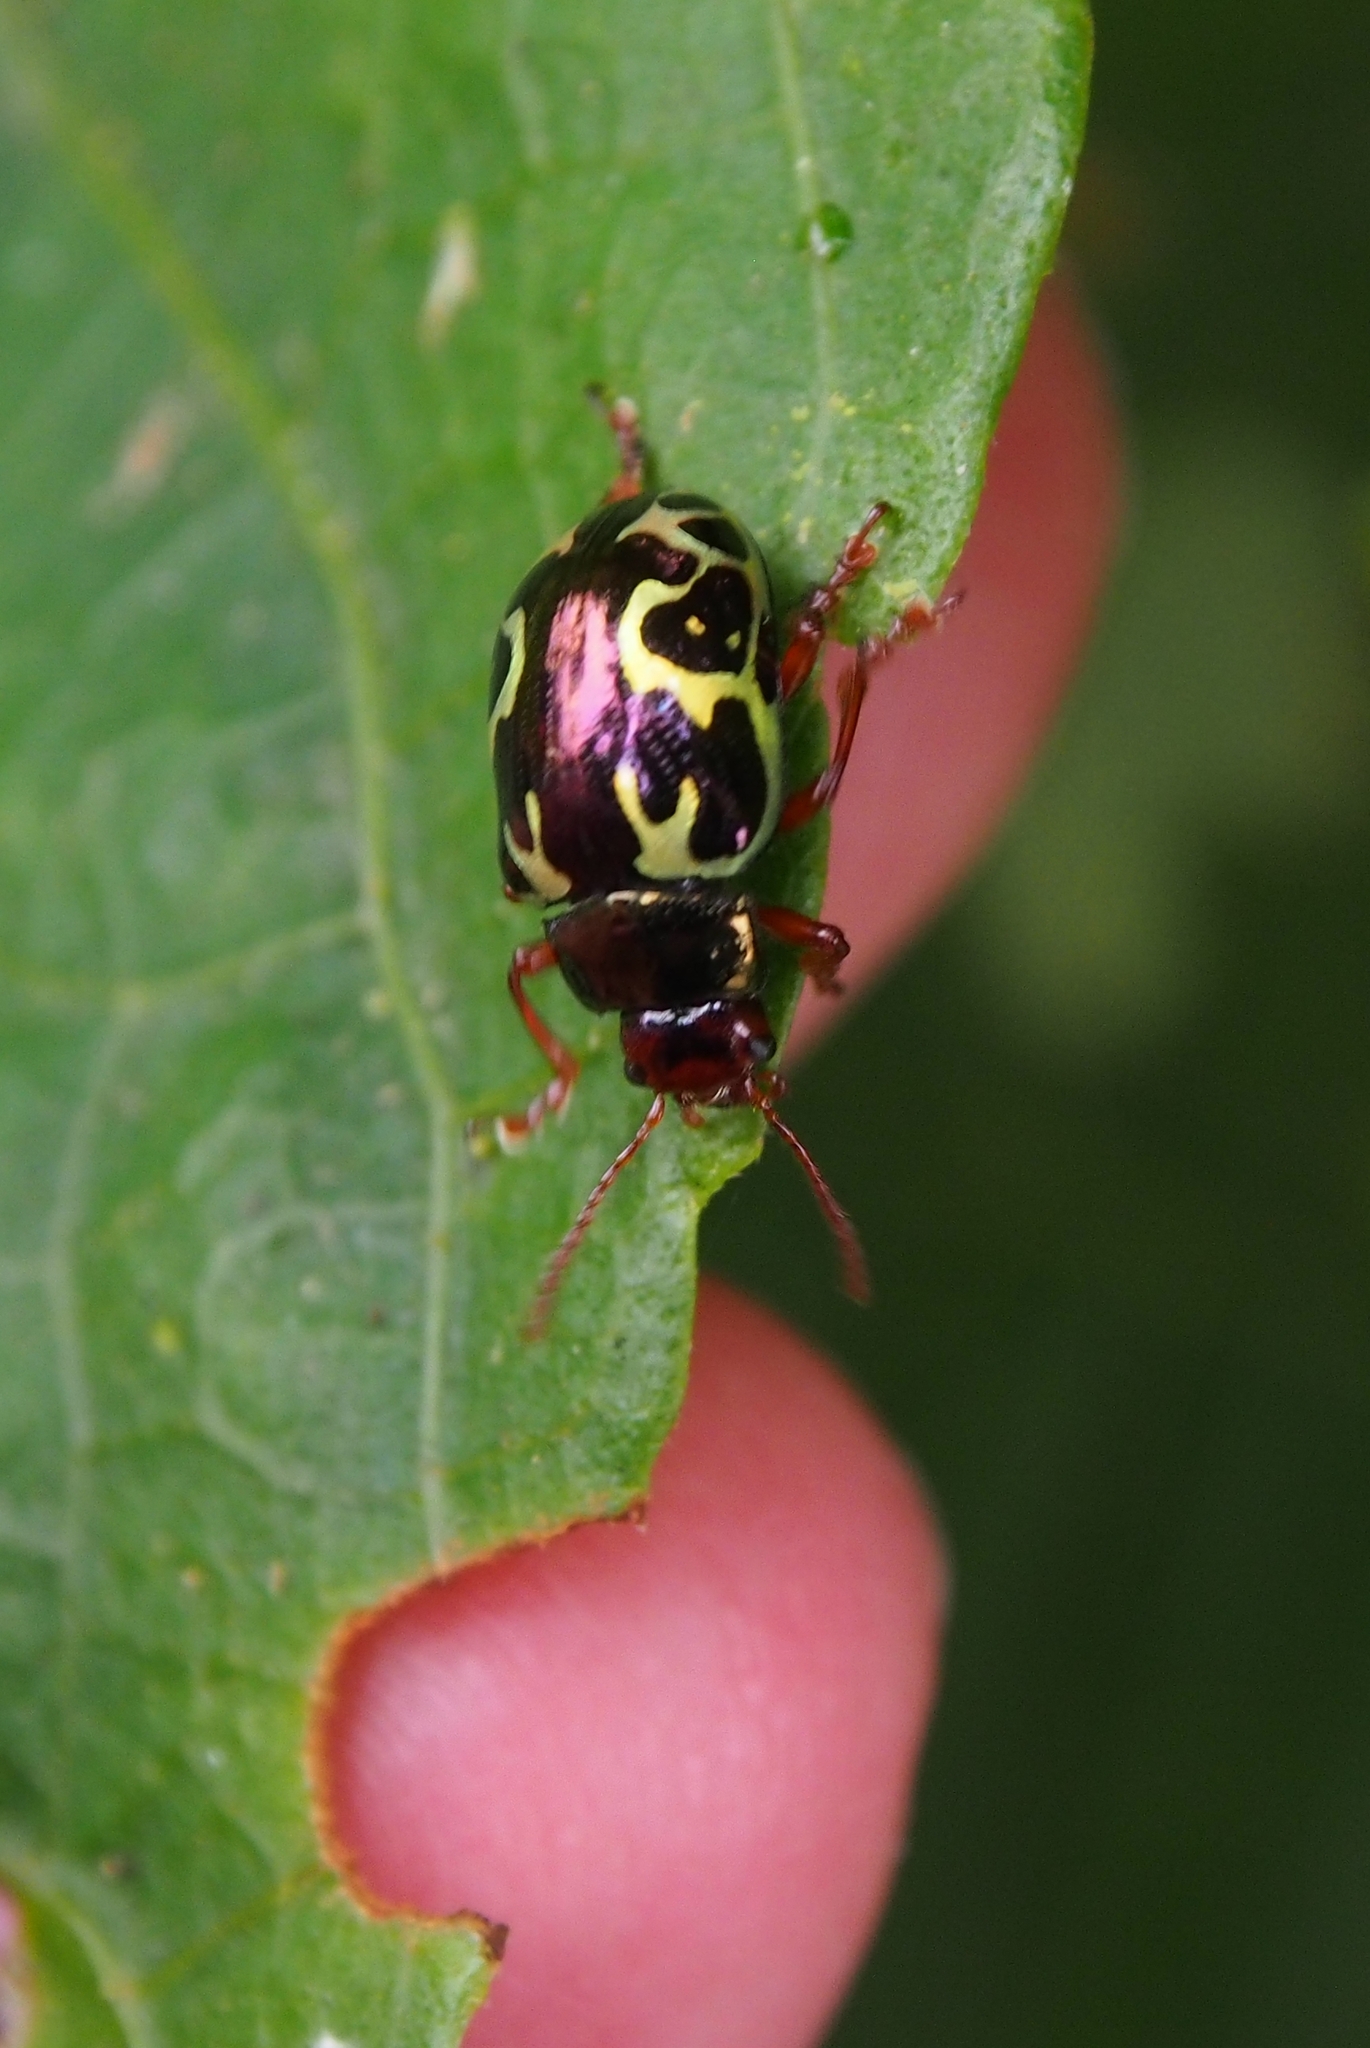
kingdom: Animalia
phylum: Arthropoda
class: Insecta
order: Coleoptera
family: Chrysomelidae
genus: Calligrapha
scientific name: Calligrapha
